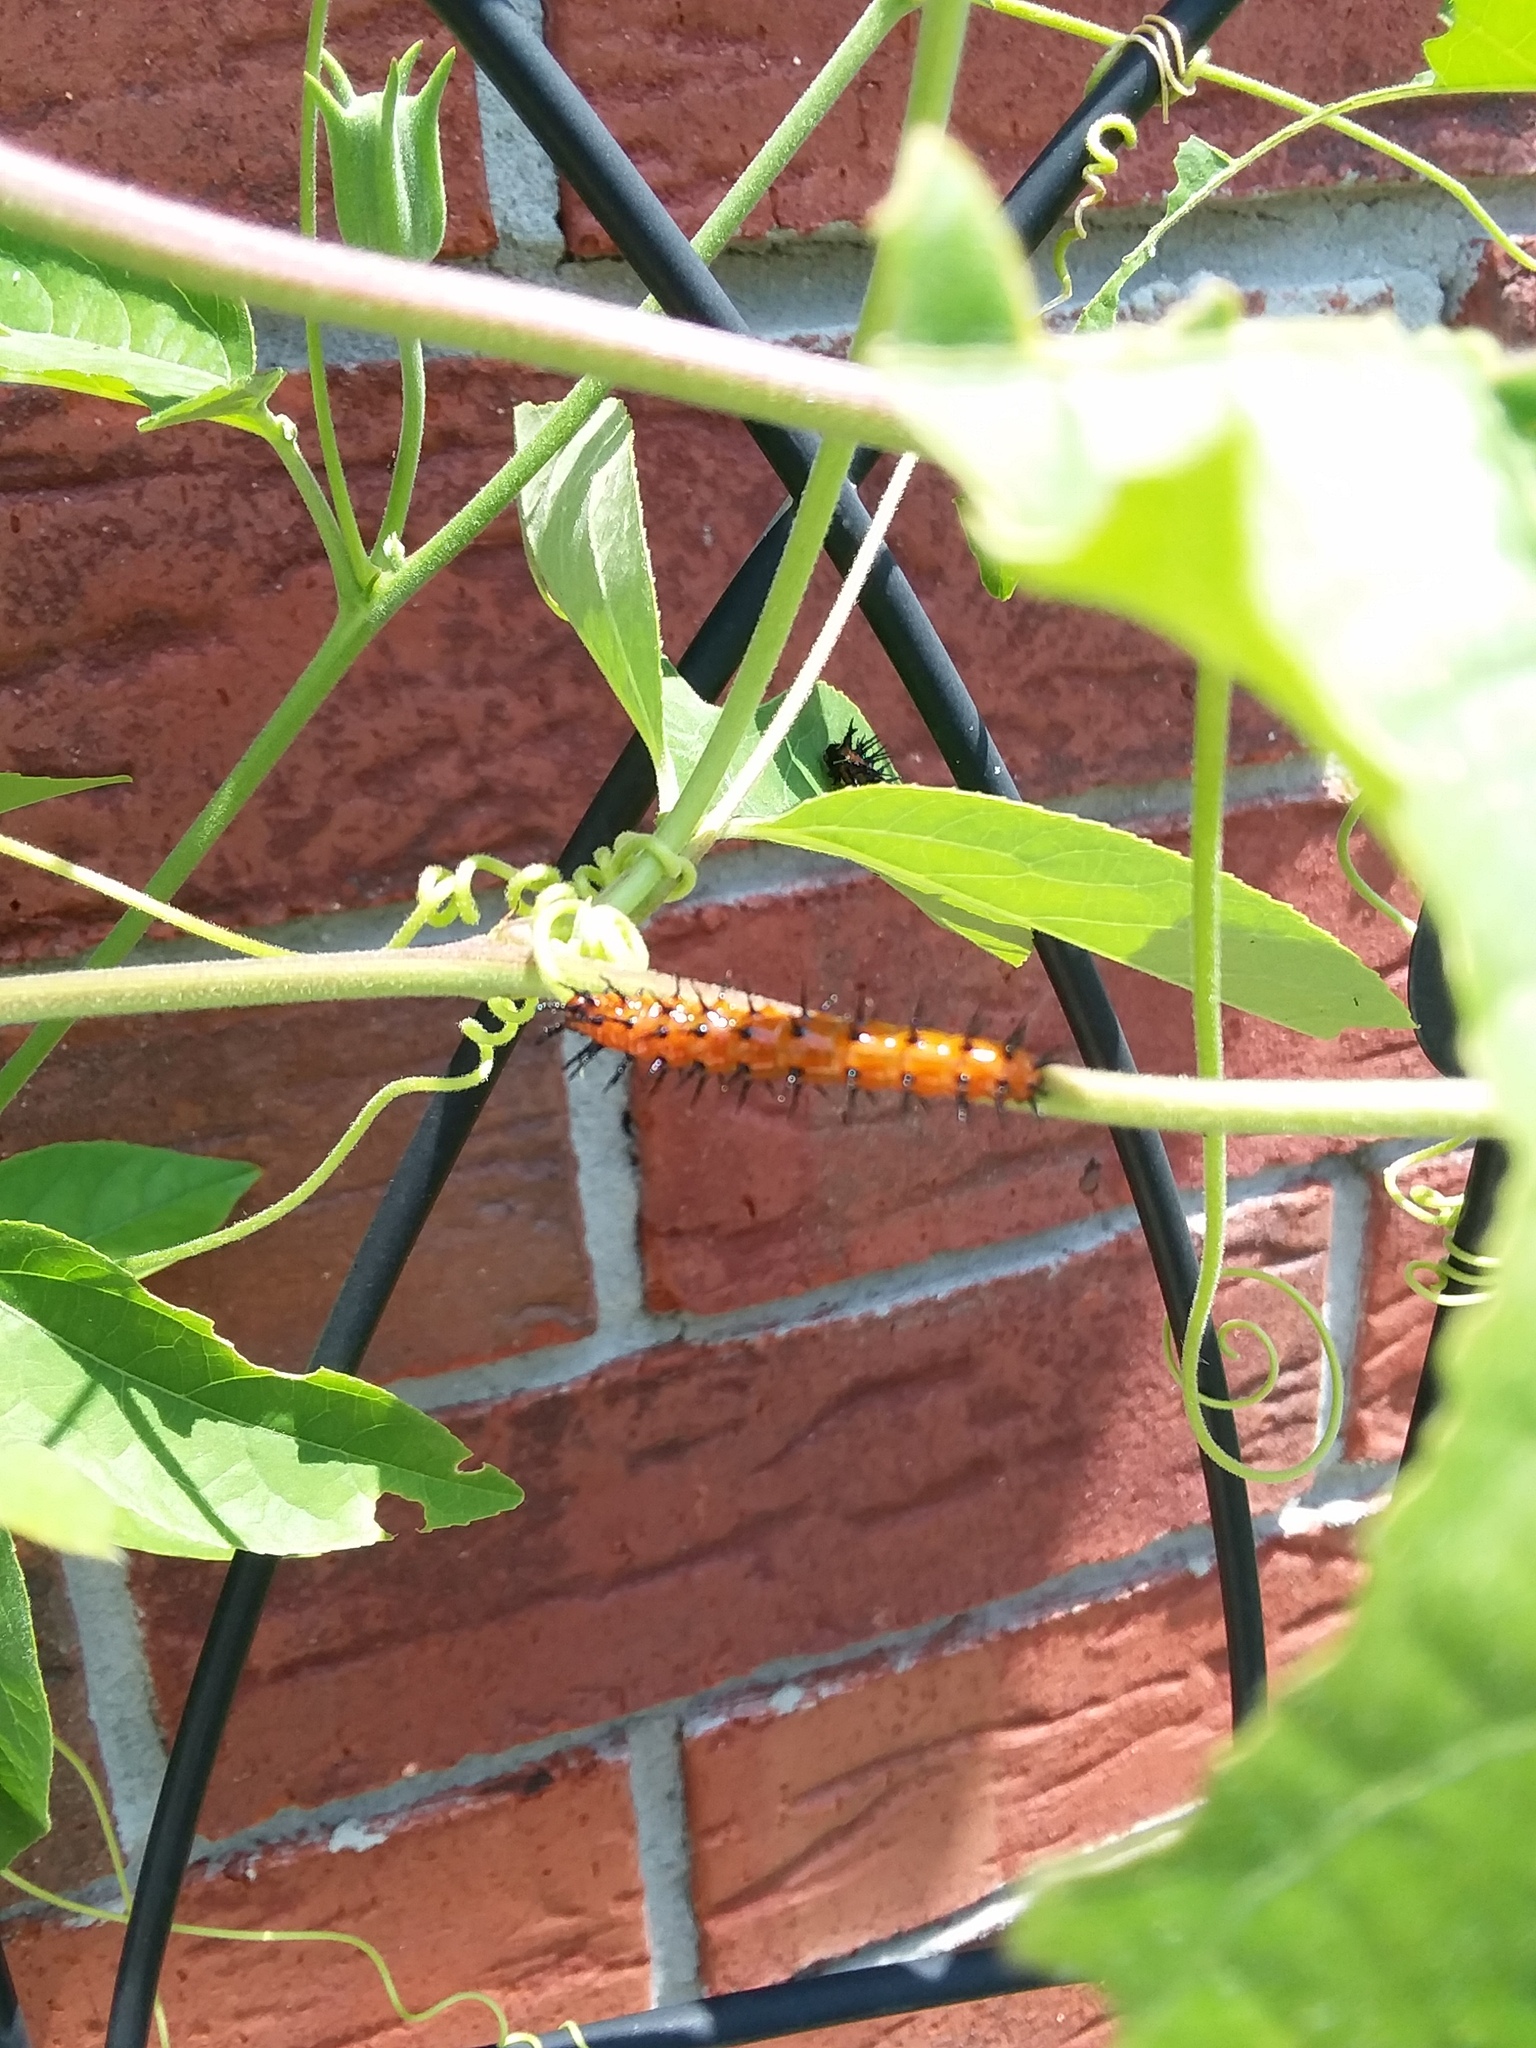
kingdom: Animalia
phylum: Arthropoda
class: Insecta
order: Lepidoptera
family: Nymphalidae
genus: Dione
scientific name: Dione vanillae
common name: Gulf fritillary
